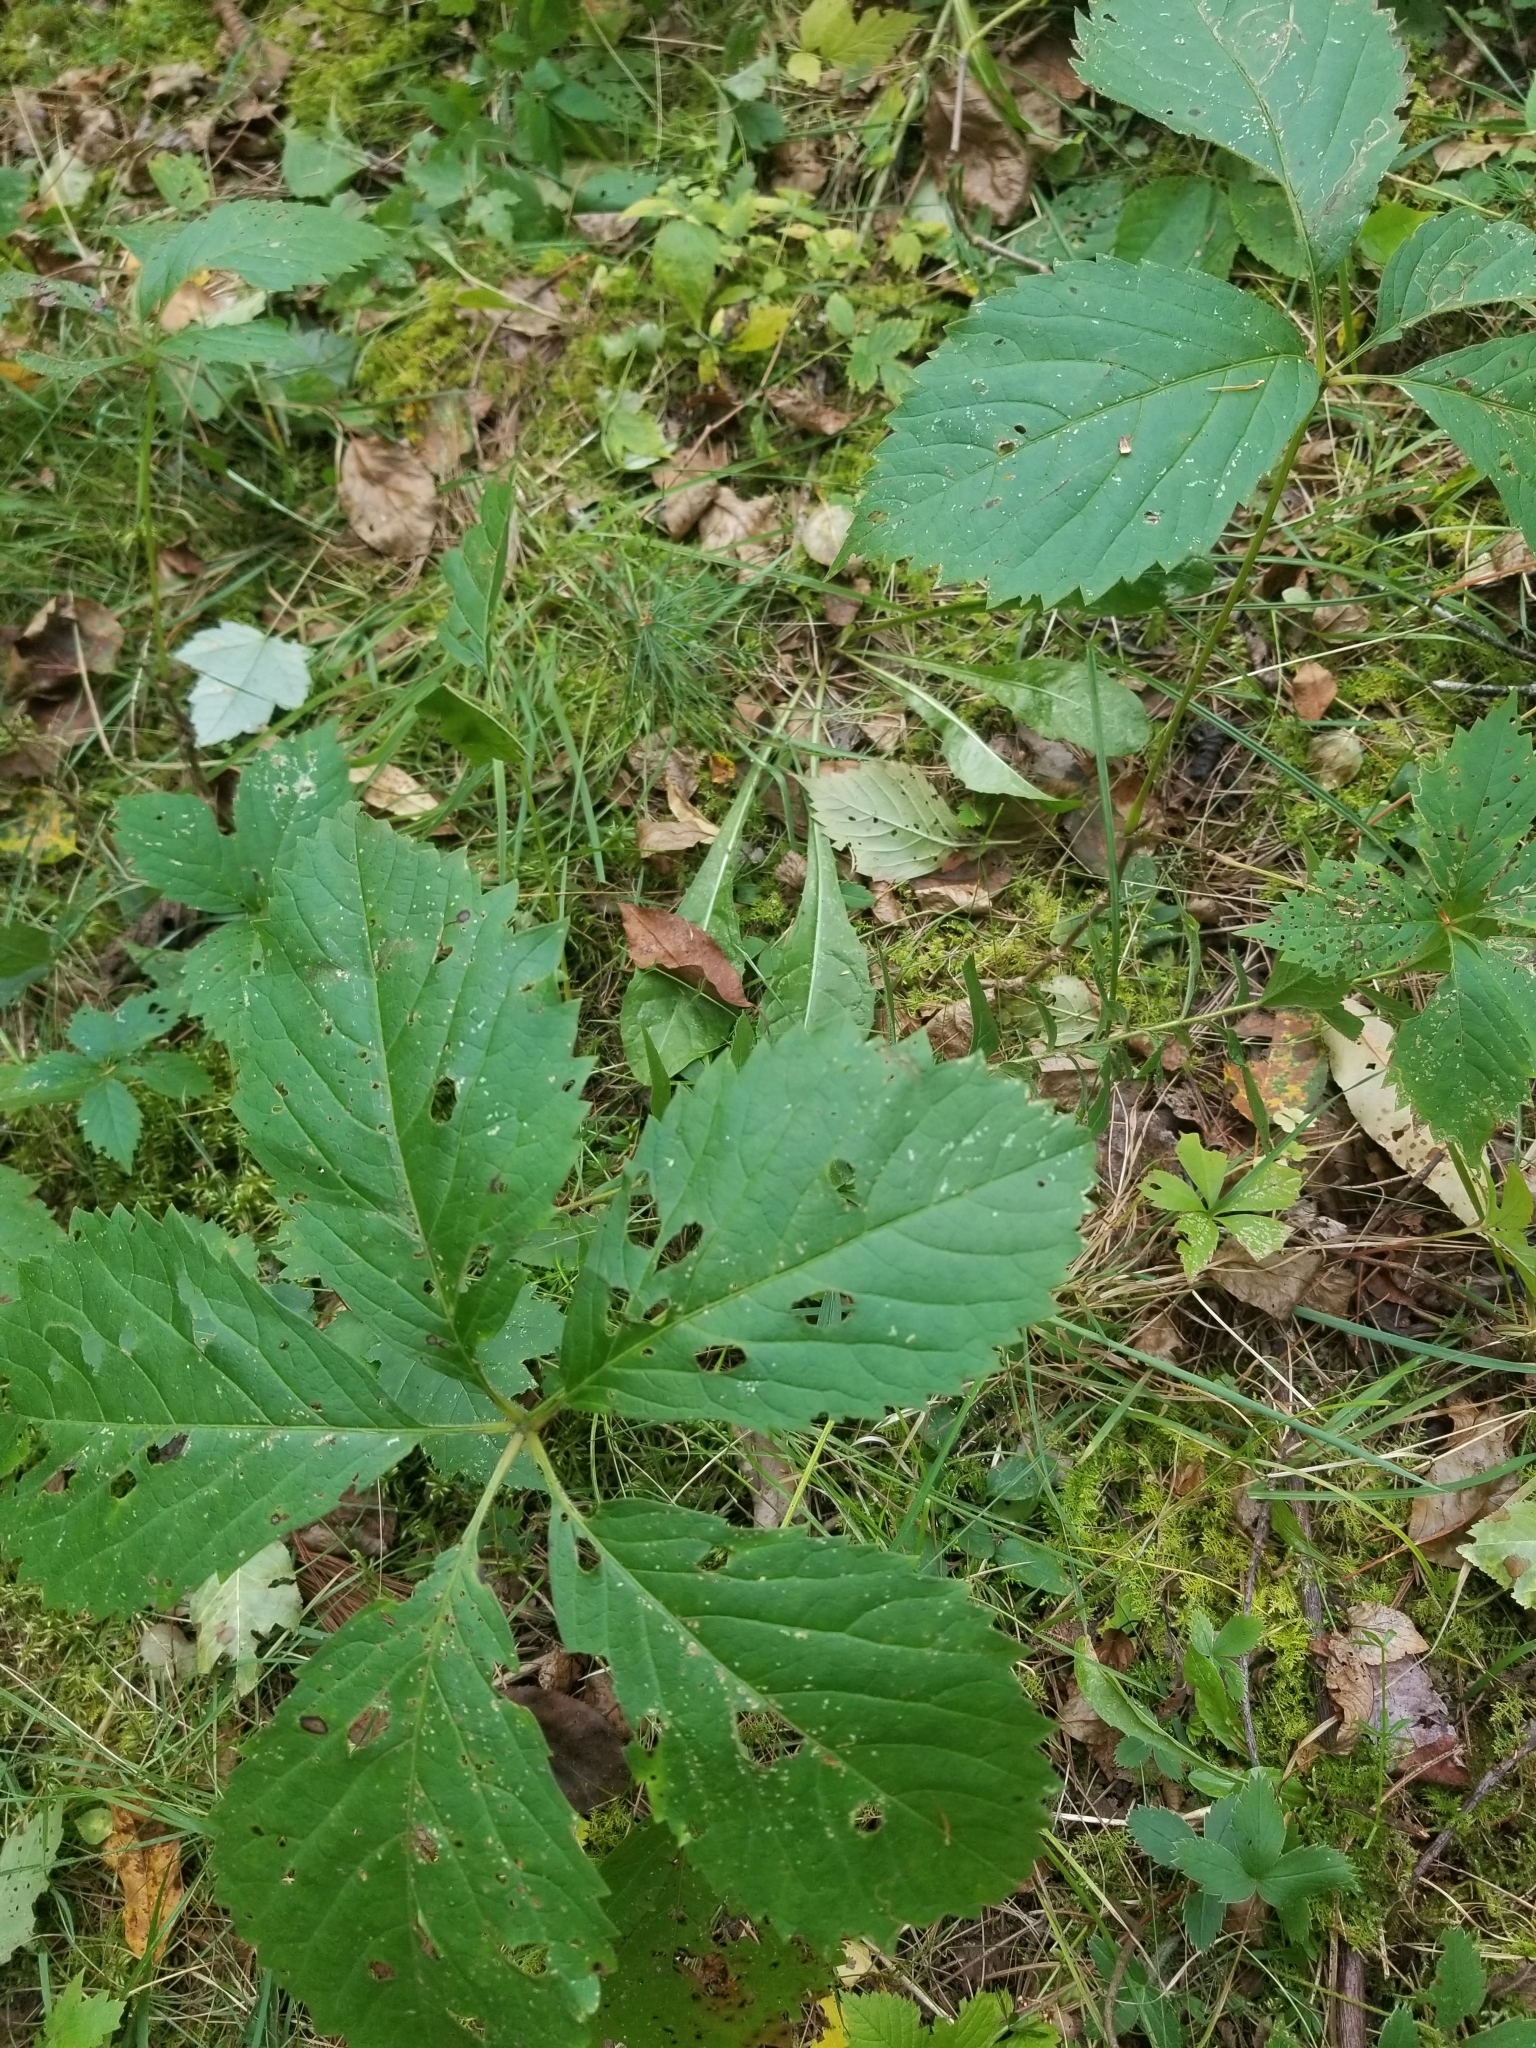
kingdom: Plantae
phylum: Tracheophyta
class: Magnoliopsida
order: Vitales
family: Vitaceae
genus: Parthenocissus
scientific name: Parthenocissus quinquefolia
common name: Virginia-creeper
